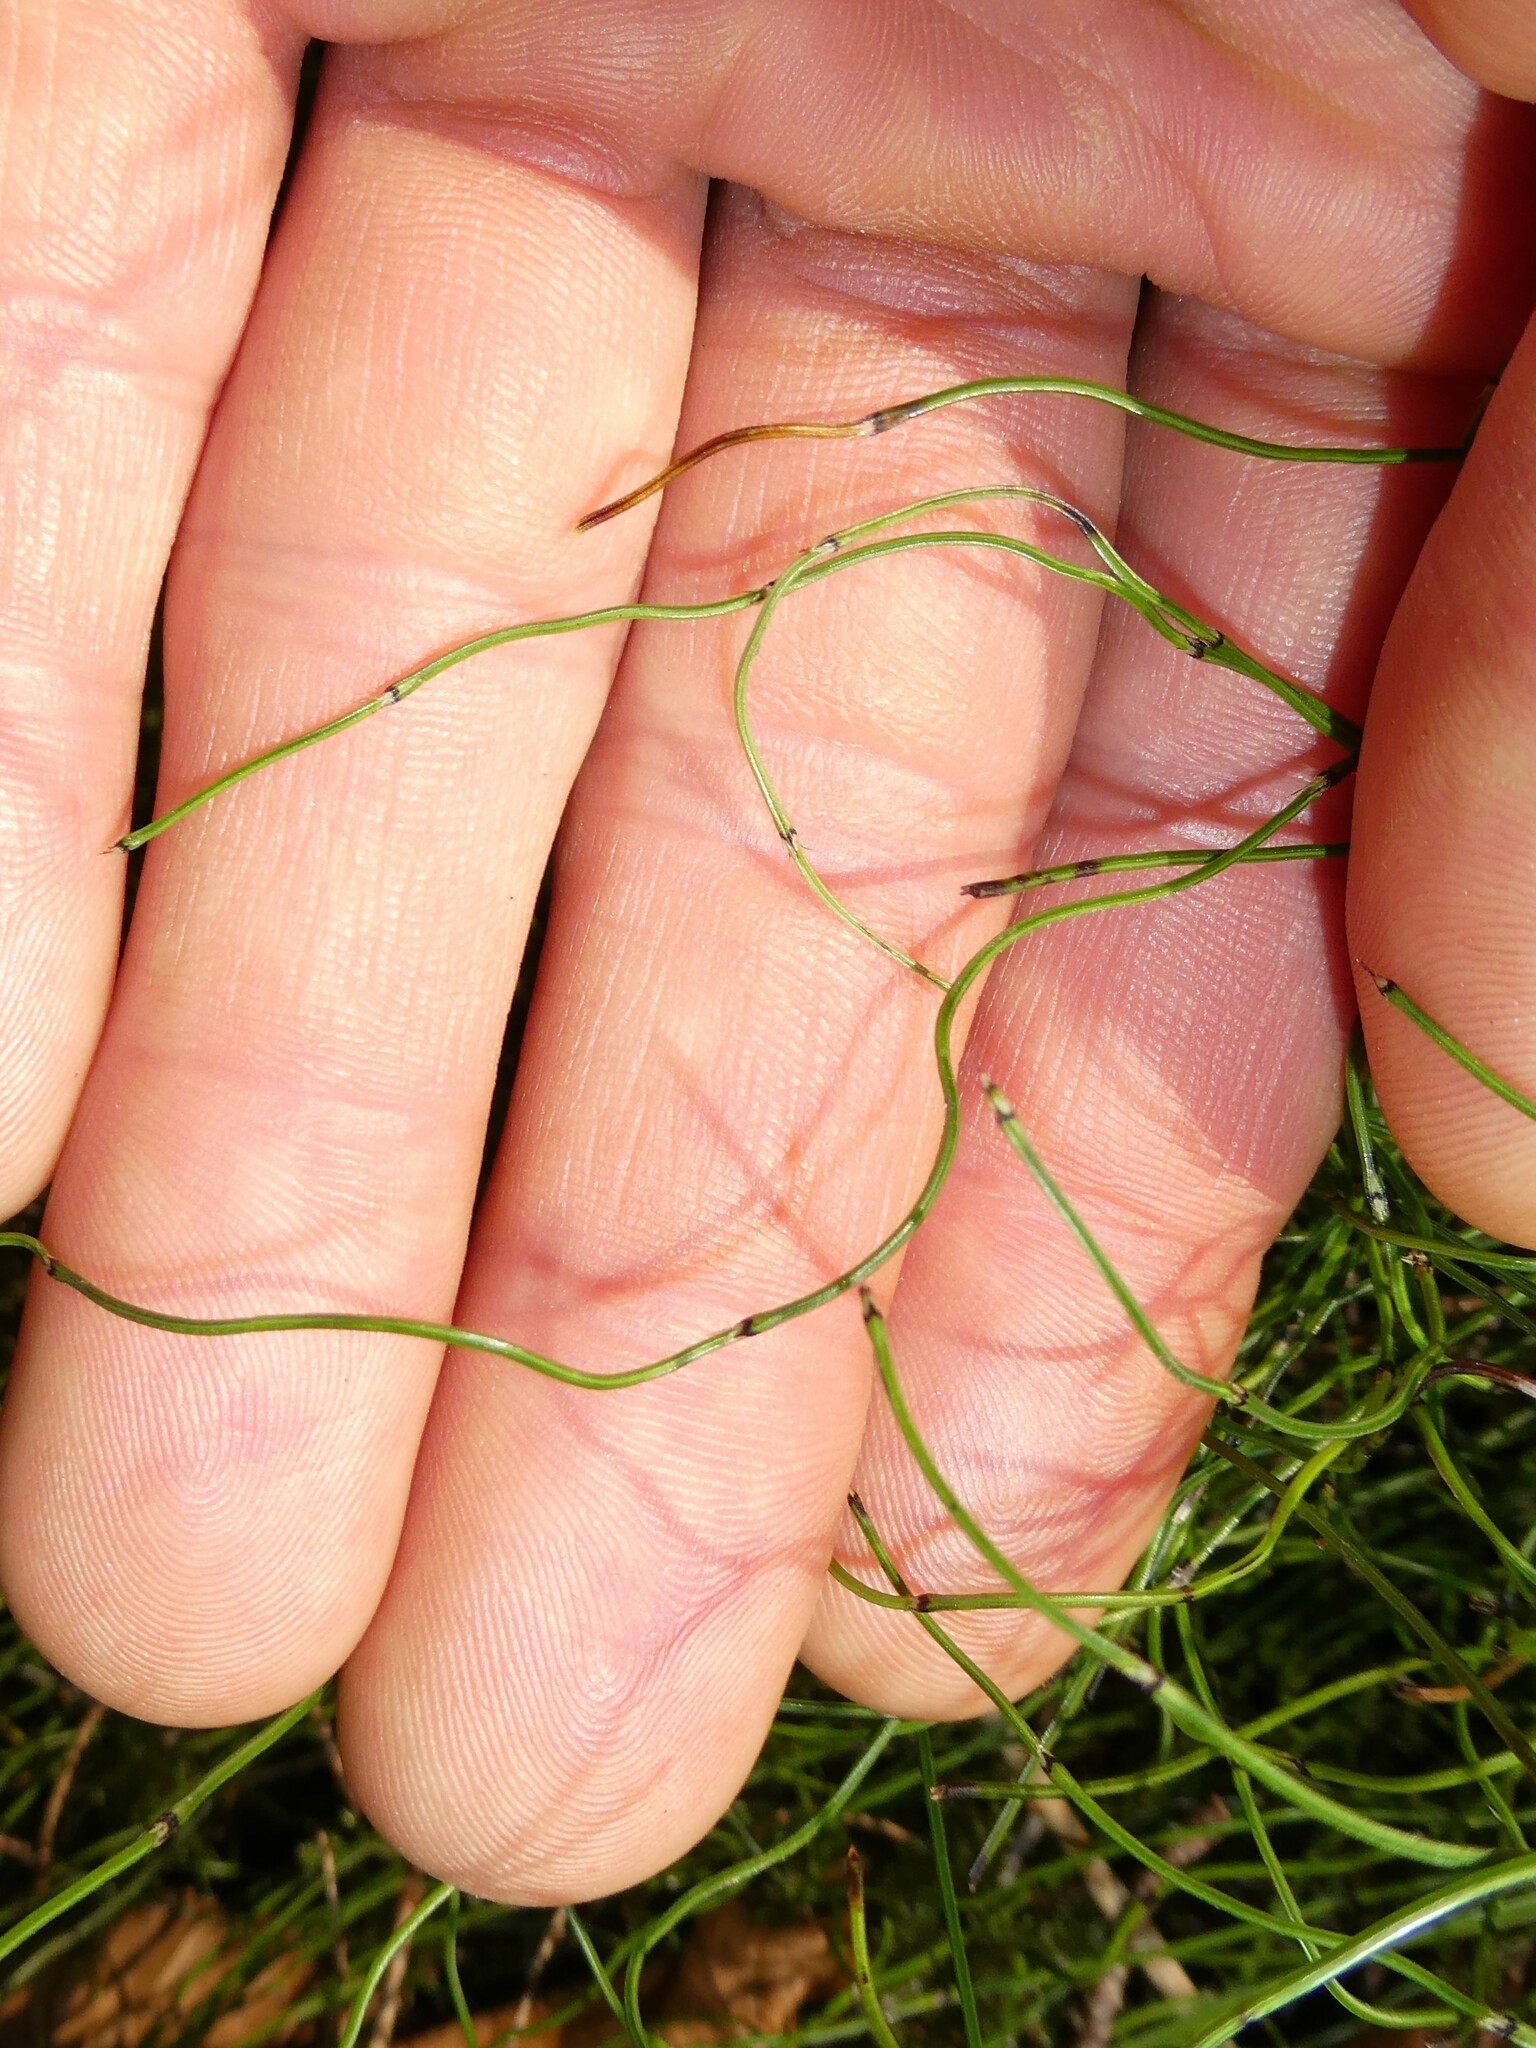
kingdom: Plantae
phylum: Tracheophyta
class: Polypodiopsida
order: Equisetales
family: Equisetaceae
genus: Equisetum
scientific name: Equisetum scirpoides
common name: Delicate horsetail
